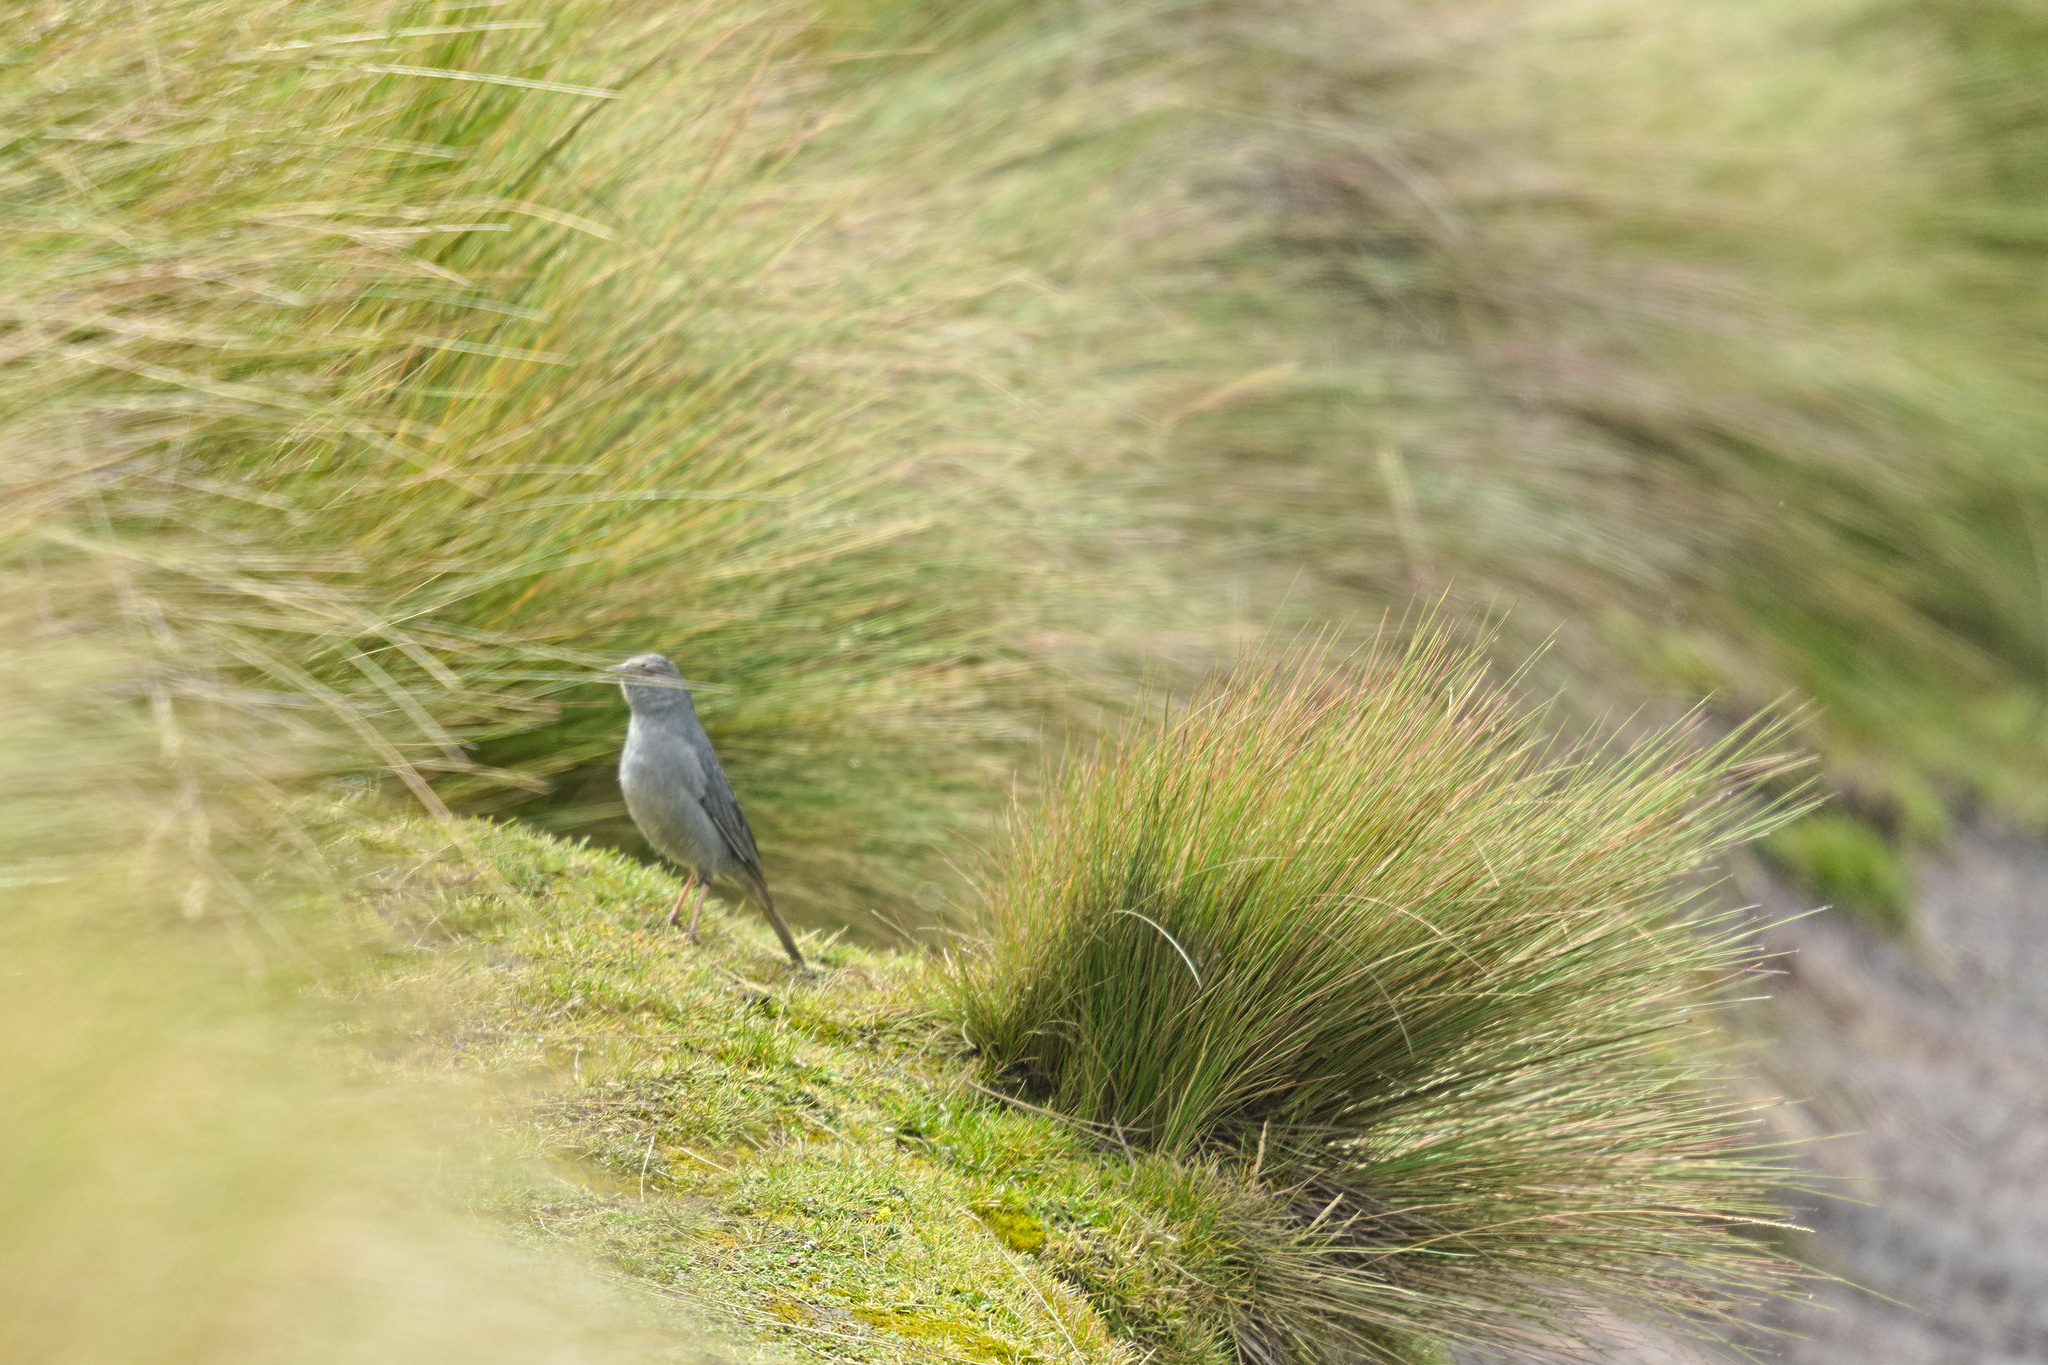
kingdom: Animalia
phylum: Chordata
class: Aves
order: Passeriformes
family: Thraupidae
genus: Geospizopsis
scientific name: Geospizopsis unicolor
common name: Plumbeous sierra-finch
